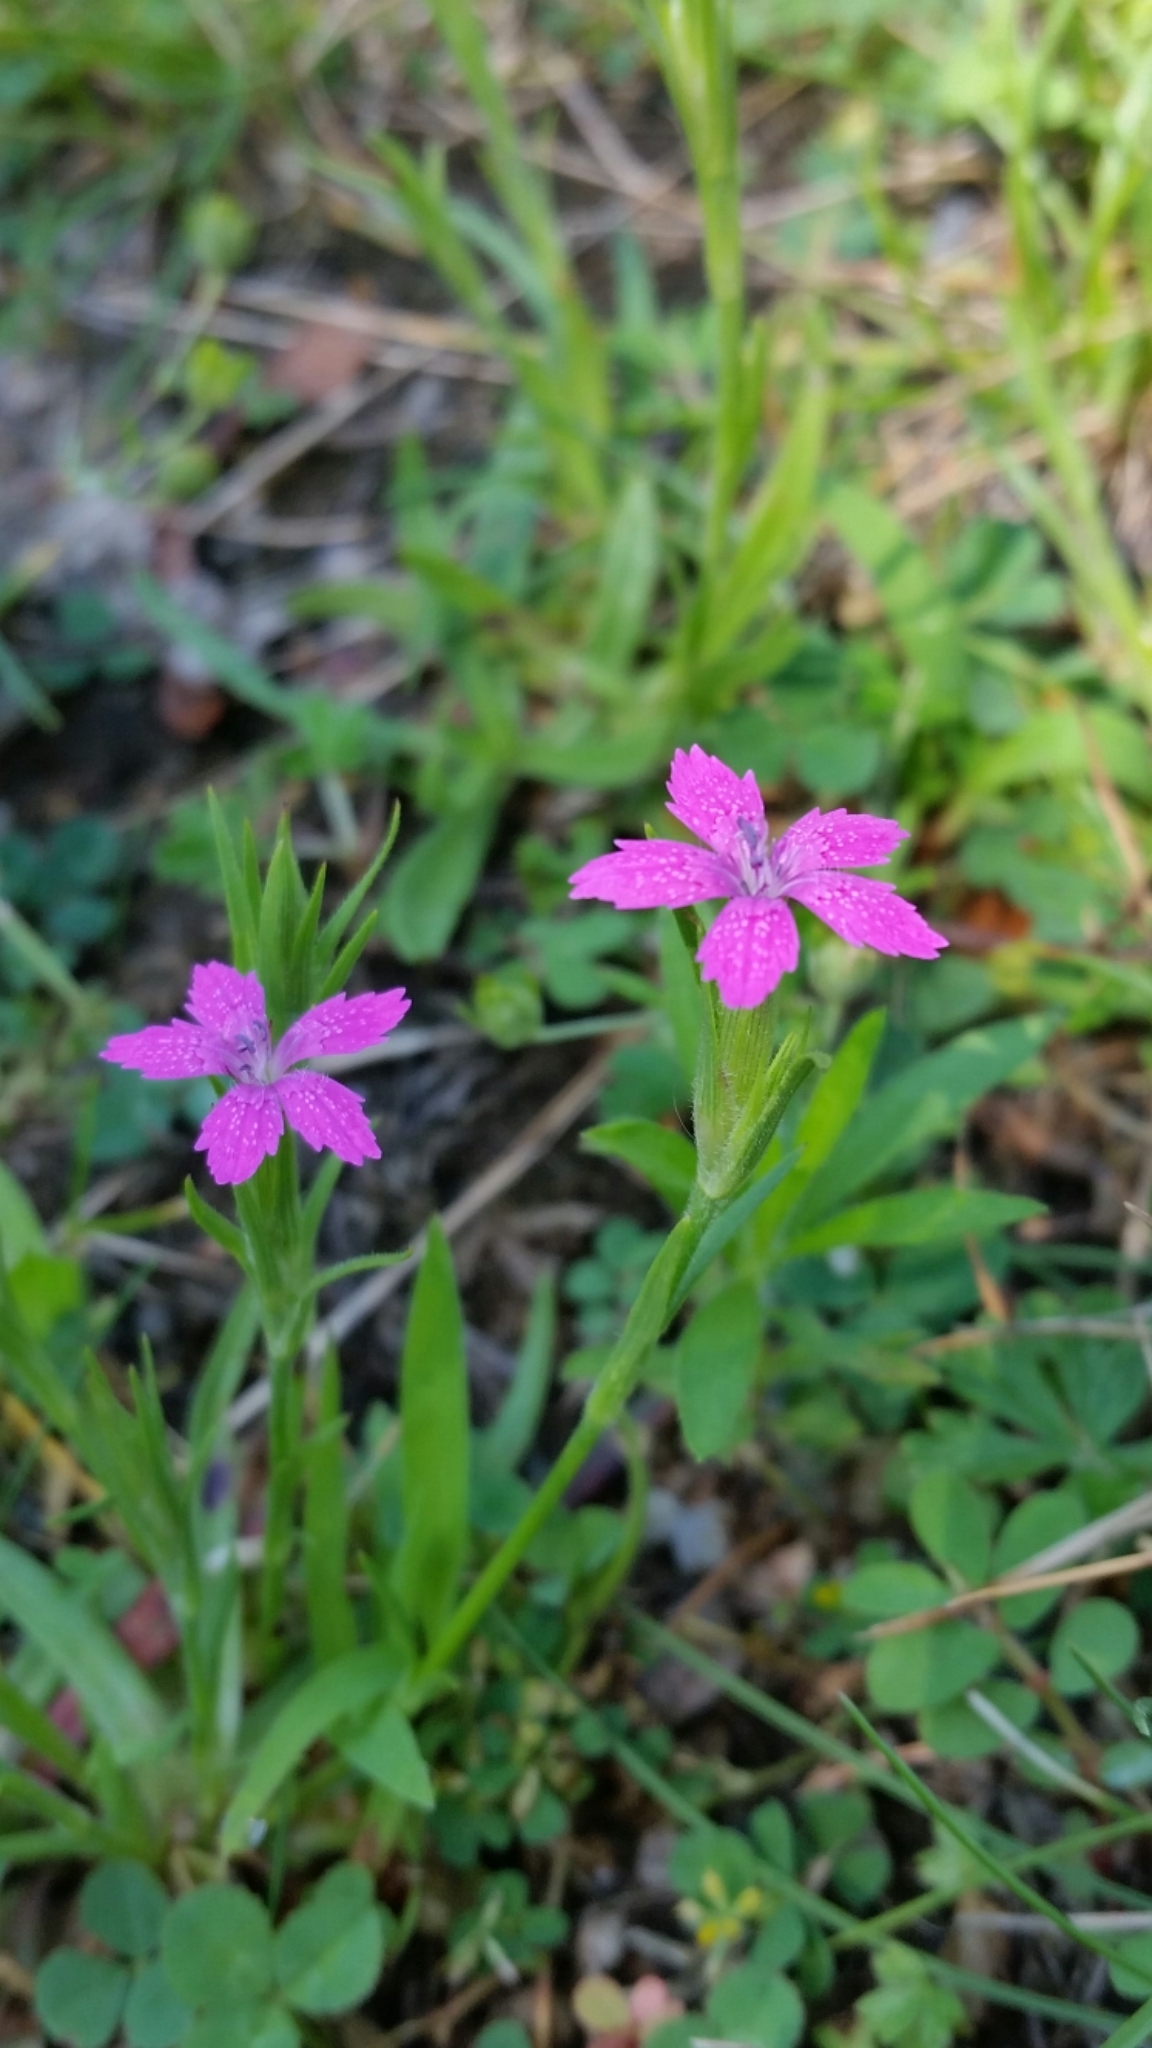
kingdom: Plantae
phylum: Tracheophyta
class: Magnoliopsida
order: Caryophyllales
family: Caryophyllaceae
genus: Dianthus
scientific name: Dianthus armeria
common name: Deptford pink
